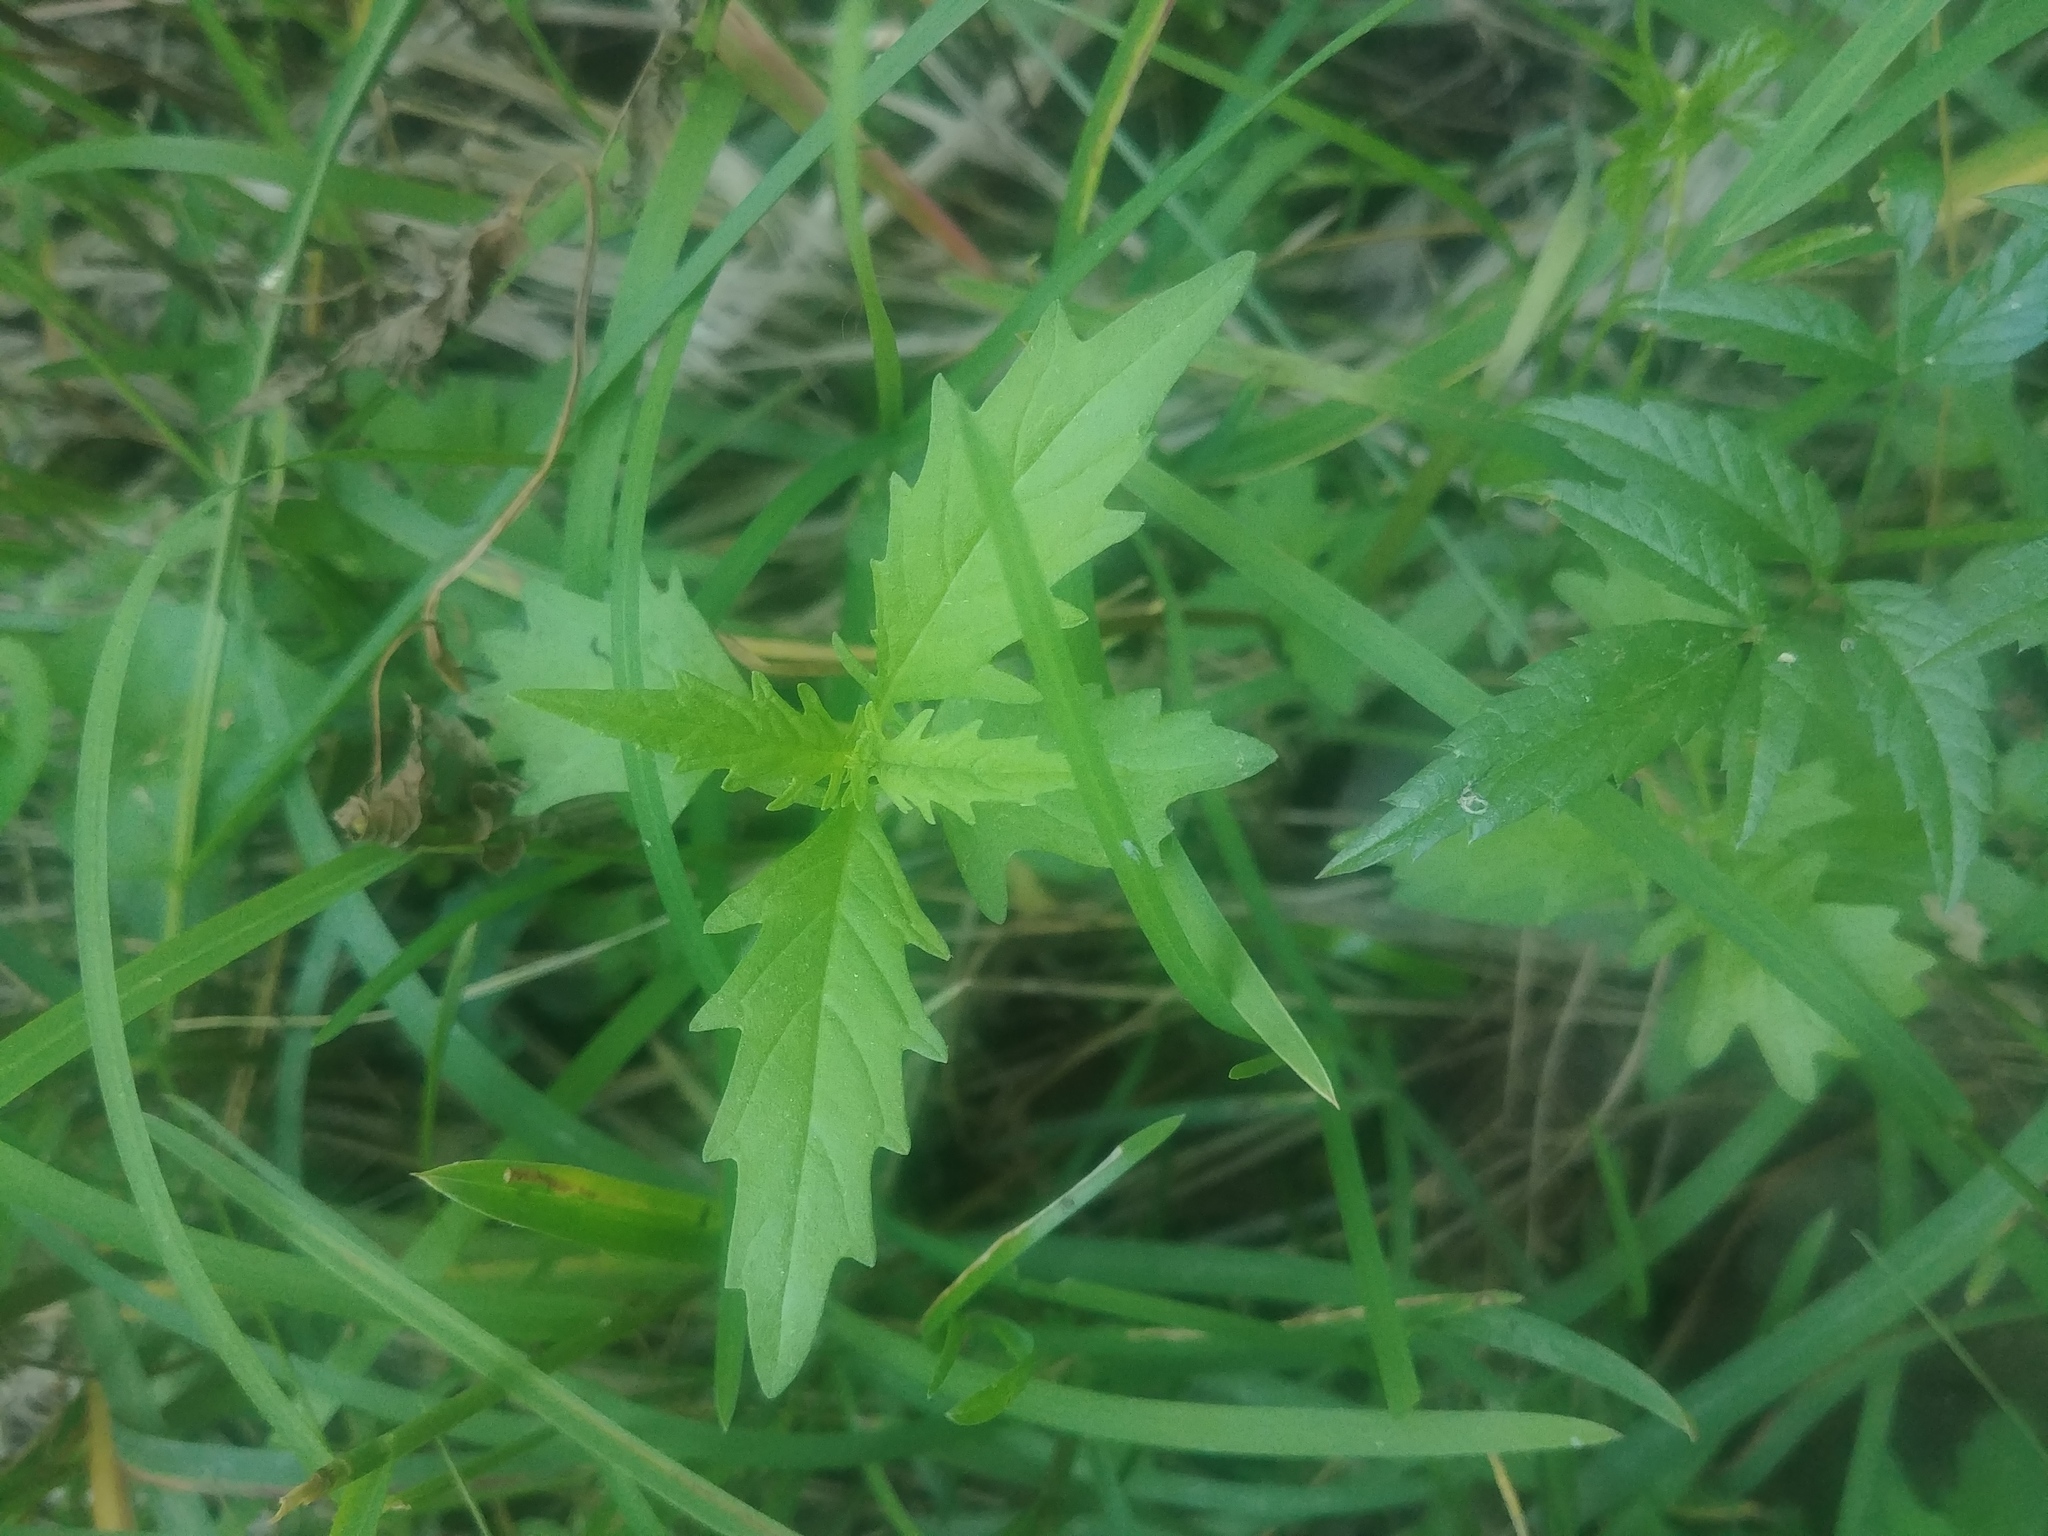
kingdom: Plantae
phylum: Tracheophyta
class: Magnoliopsida
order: Lamiales
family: Lamiaceae
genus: Lycopus
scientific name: Lycopus americanus
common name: American bugleweed
